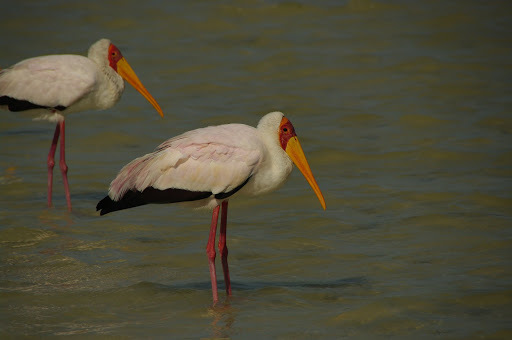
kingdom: Animalia
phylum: Chordata
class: Aves
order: Ciconiiformes
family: Ciconiidae
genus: Mycteria
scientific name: Mycteria ibis
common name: Yellow-billed stork
